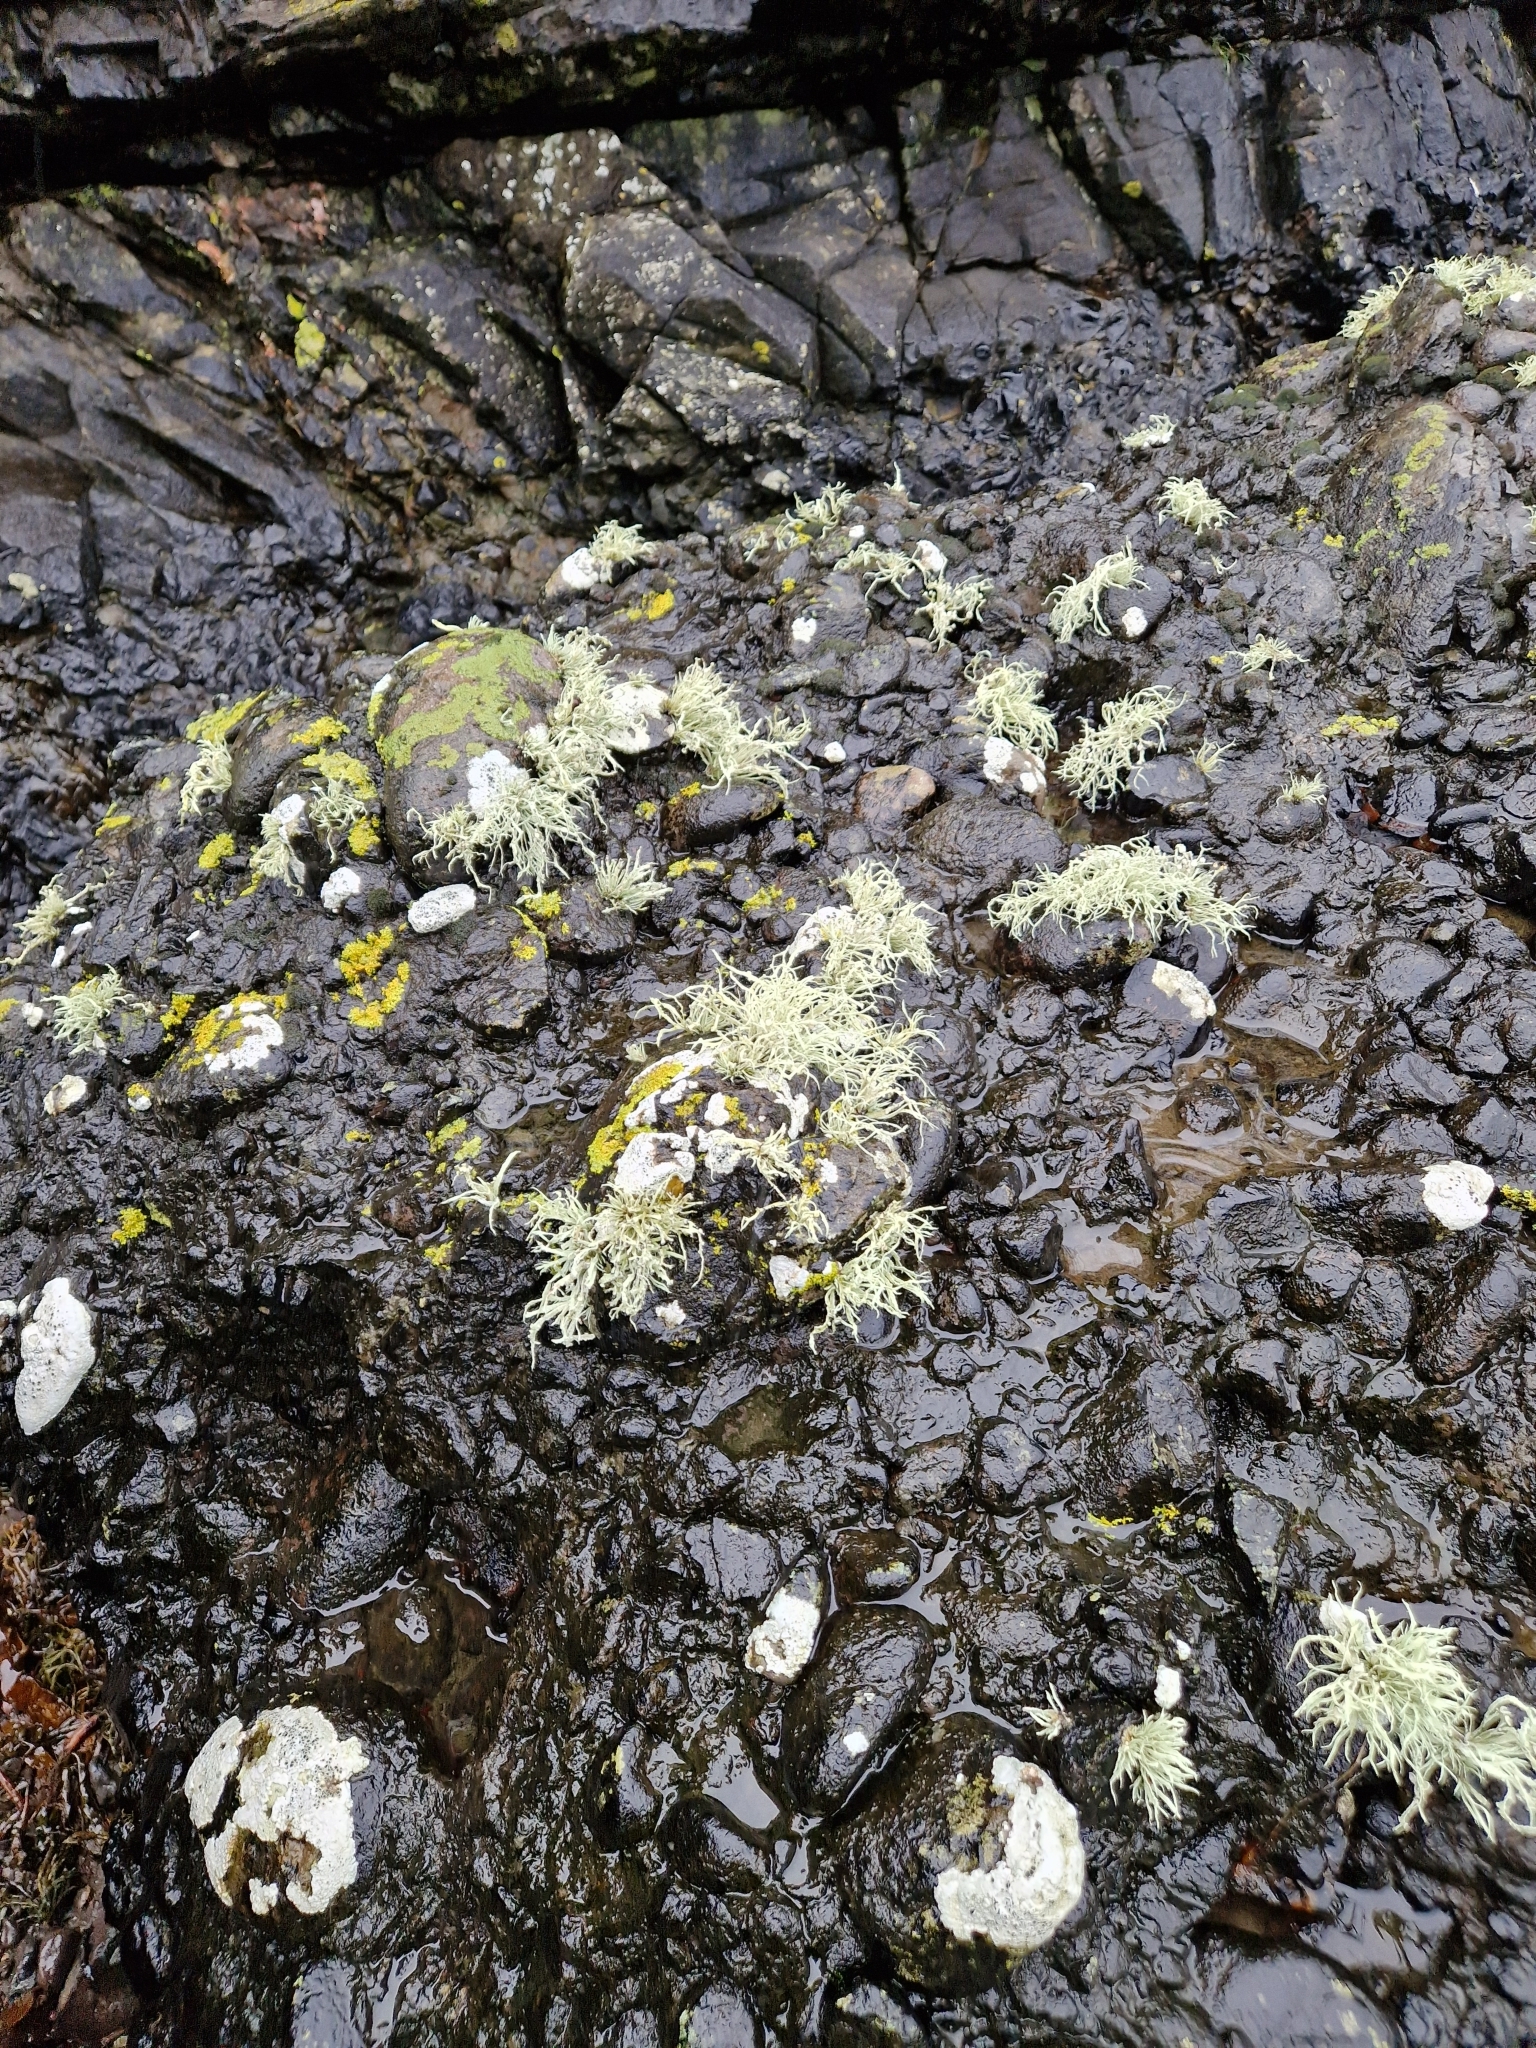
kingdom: Fungi
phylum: Ascomycota
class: Lecanoromycetes
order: Teloschistales
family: Teloschistaceae
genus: Xanthoria
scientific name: Xanthoria parietina
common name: Common orange lichen
